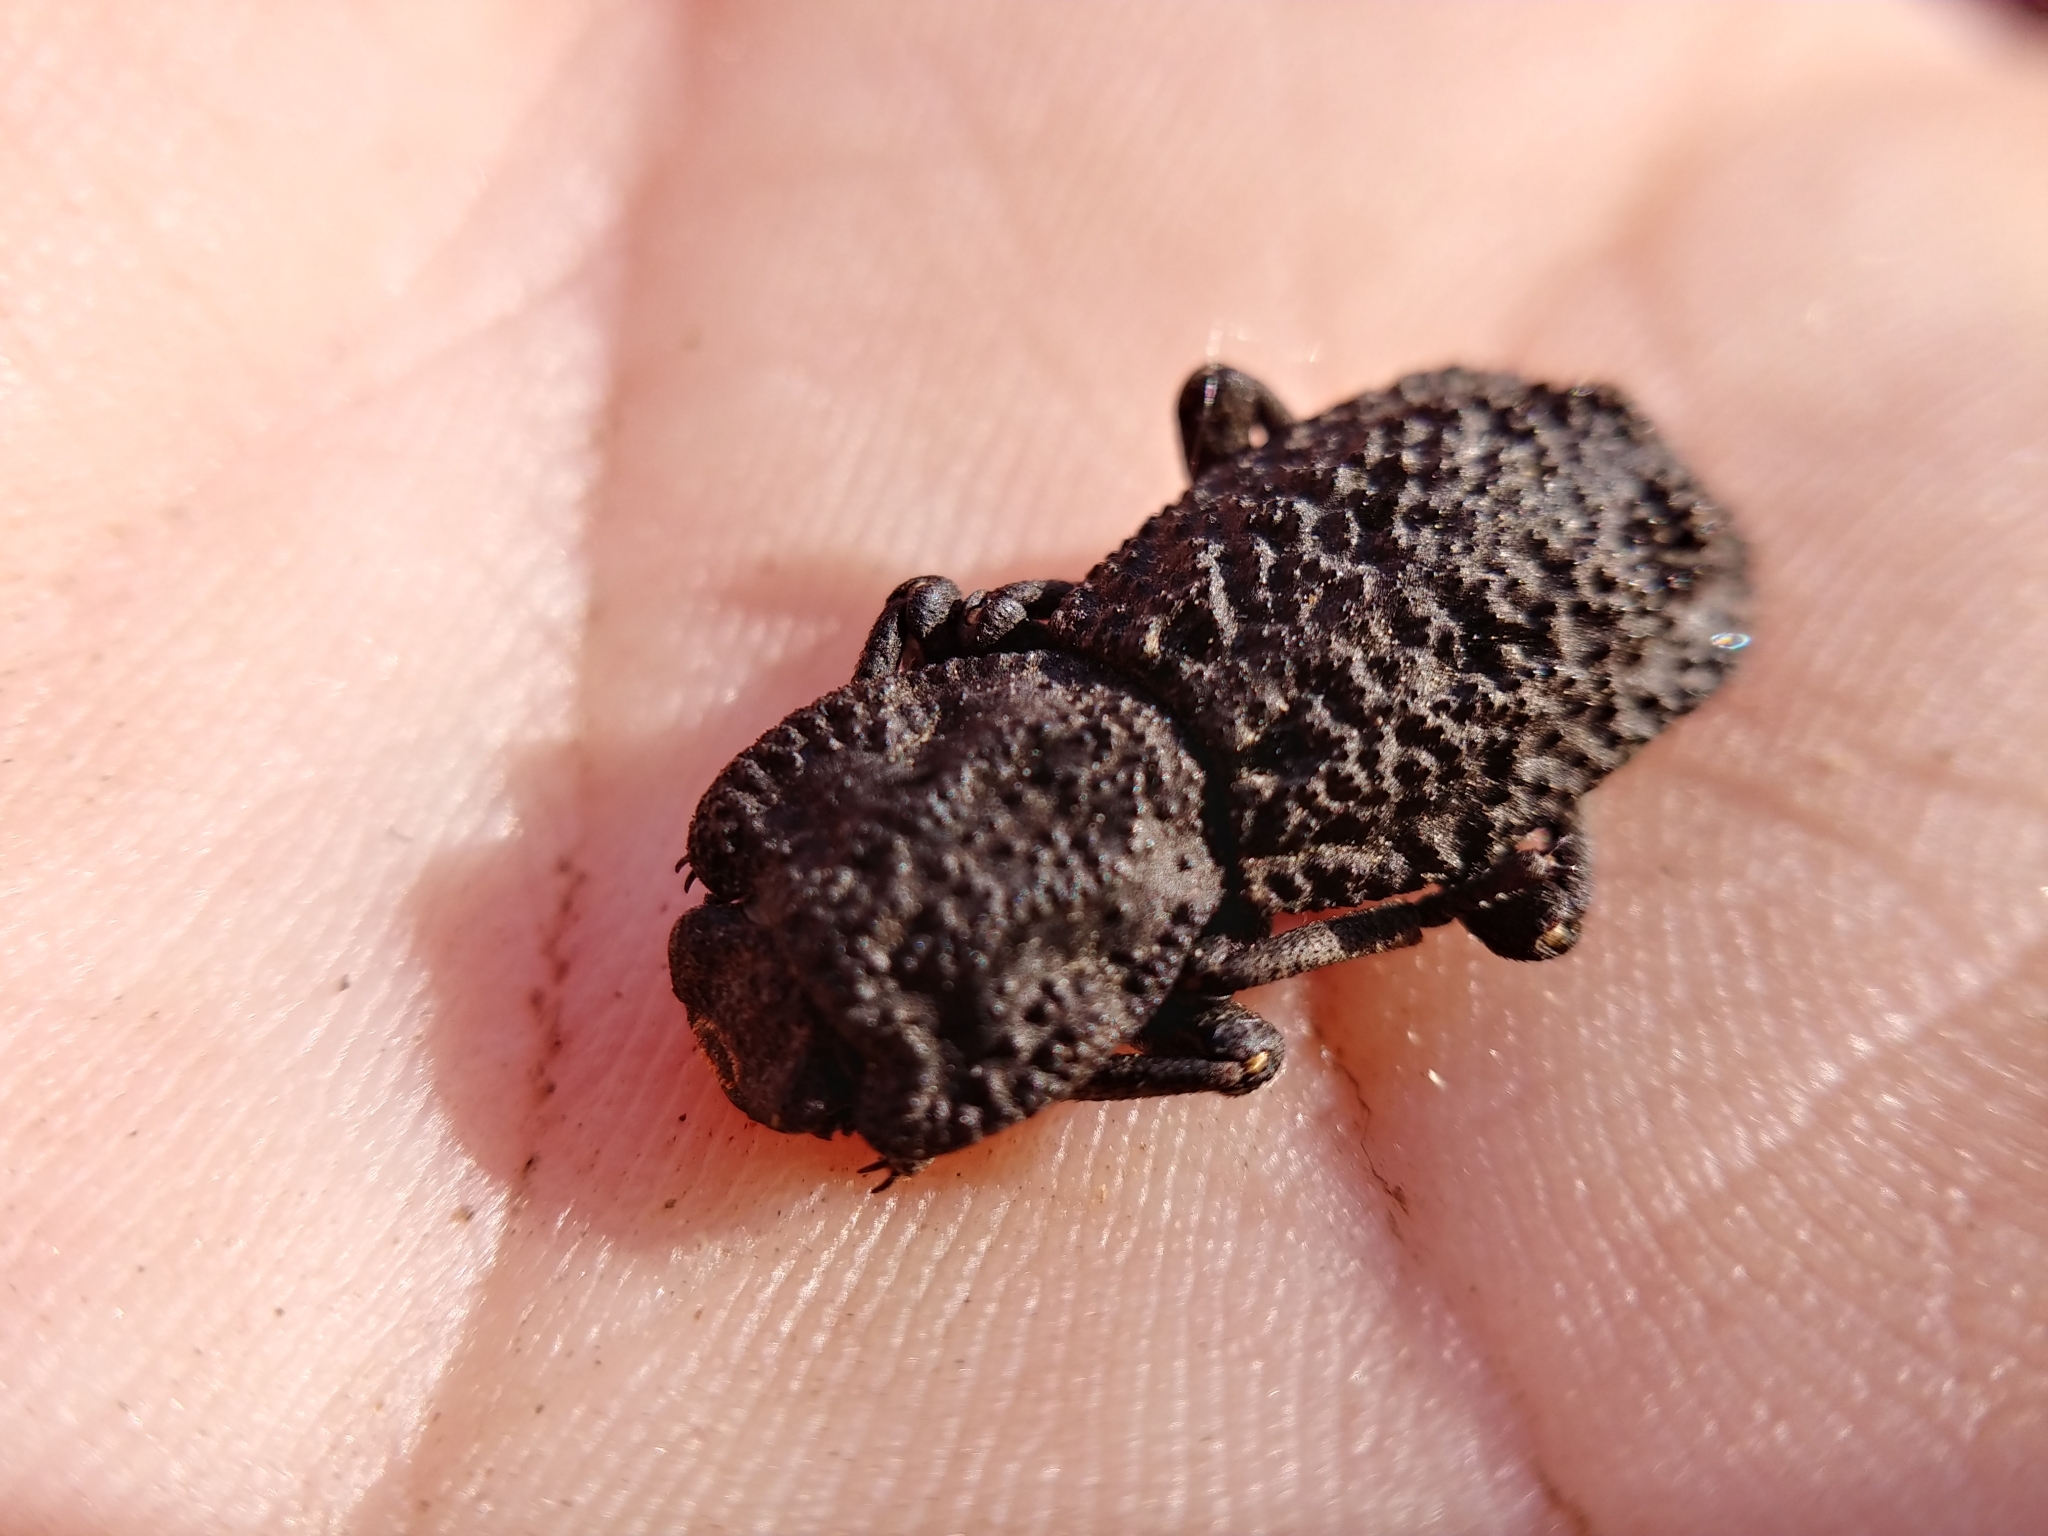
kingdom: Animalia
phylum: Arthropoda
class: Insecta
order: Coleoptera
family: Zopheridae
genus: Phloeodes
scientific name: Phloeodes diabolicus
